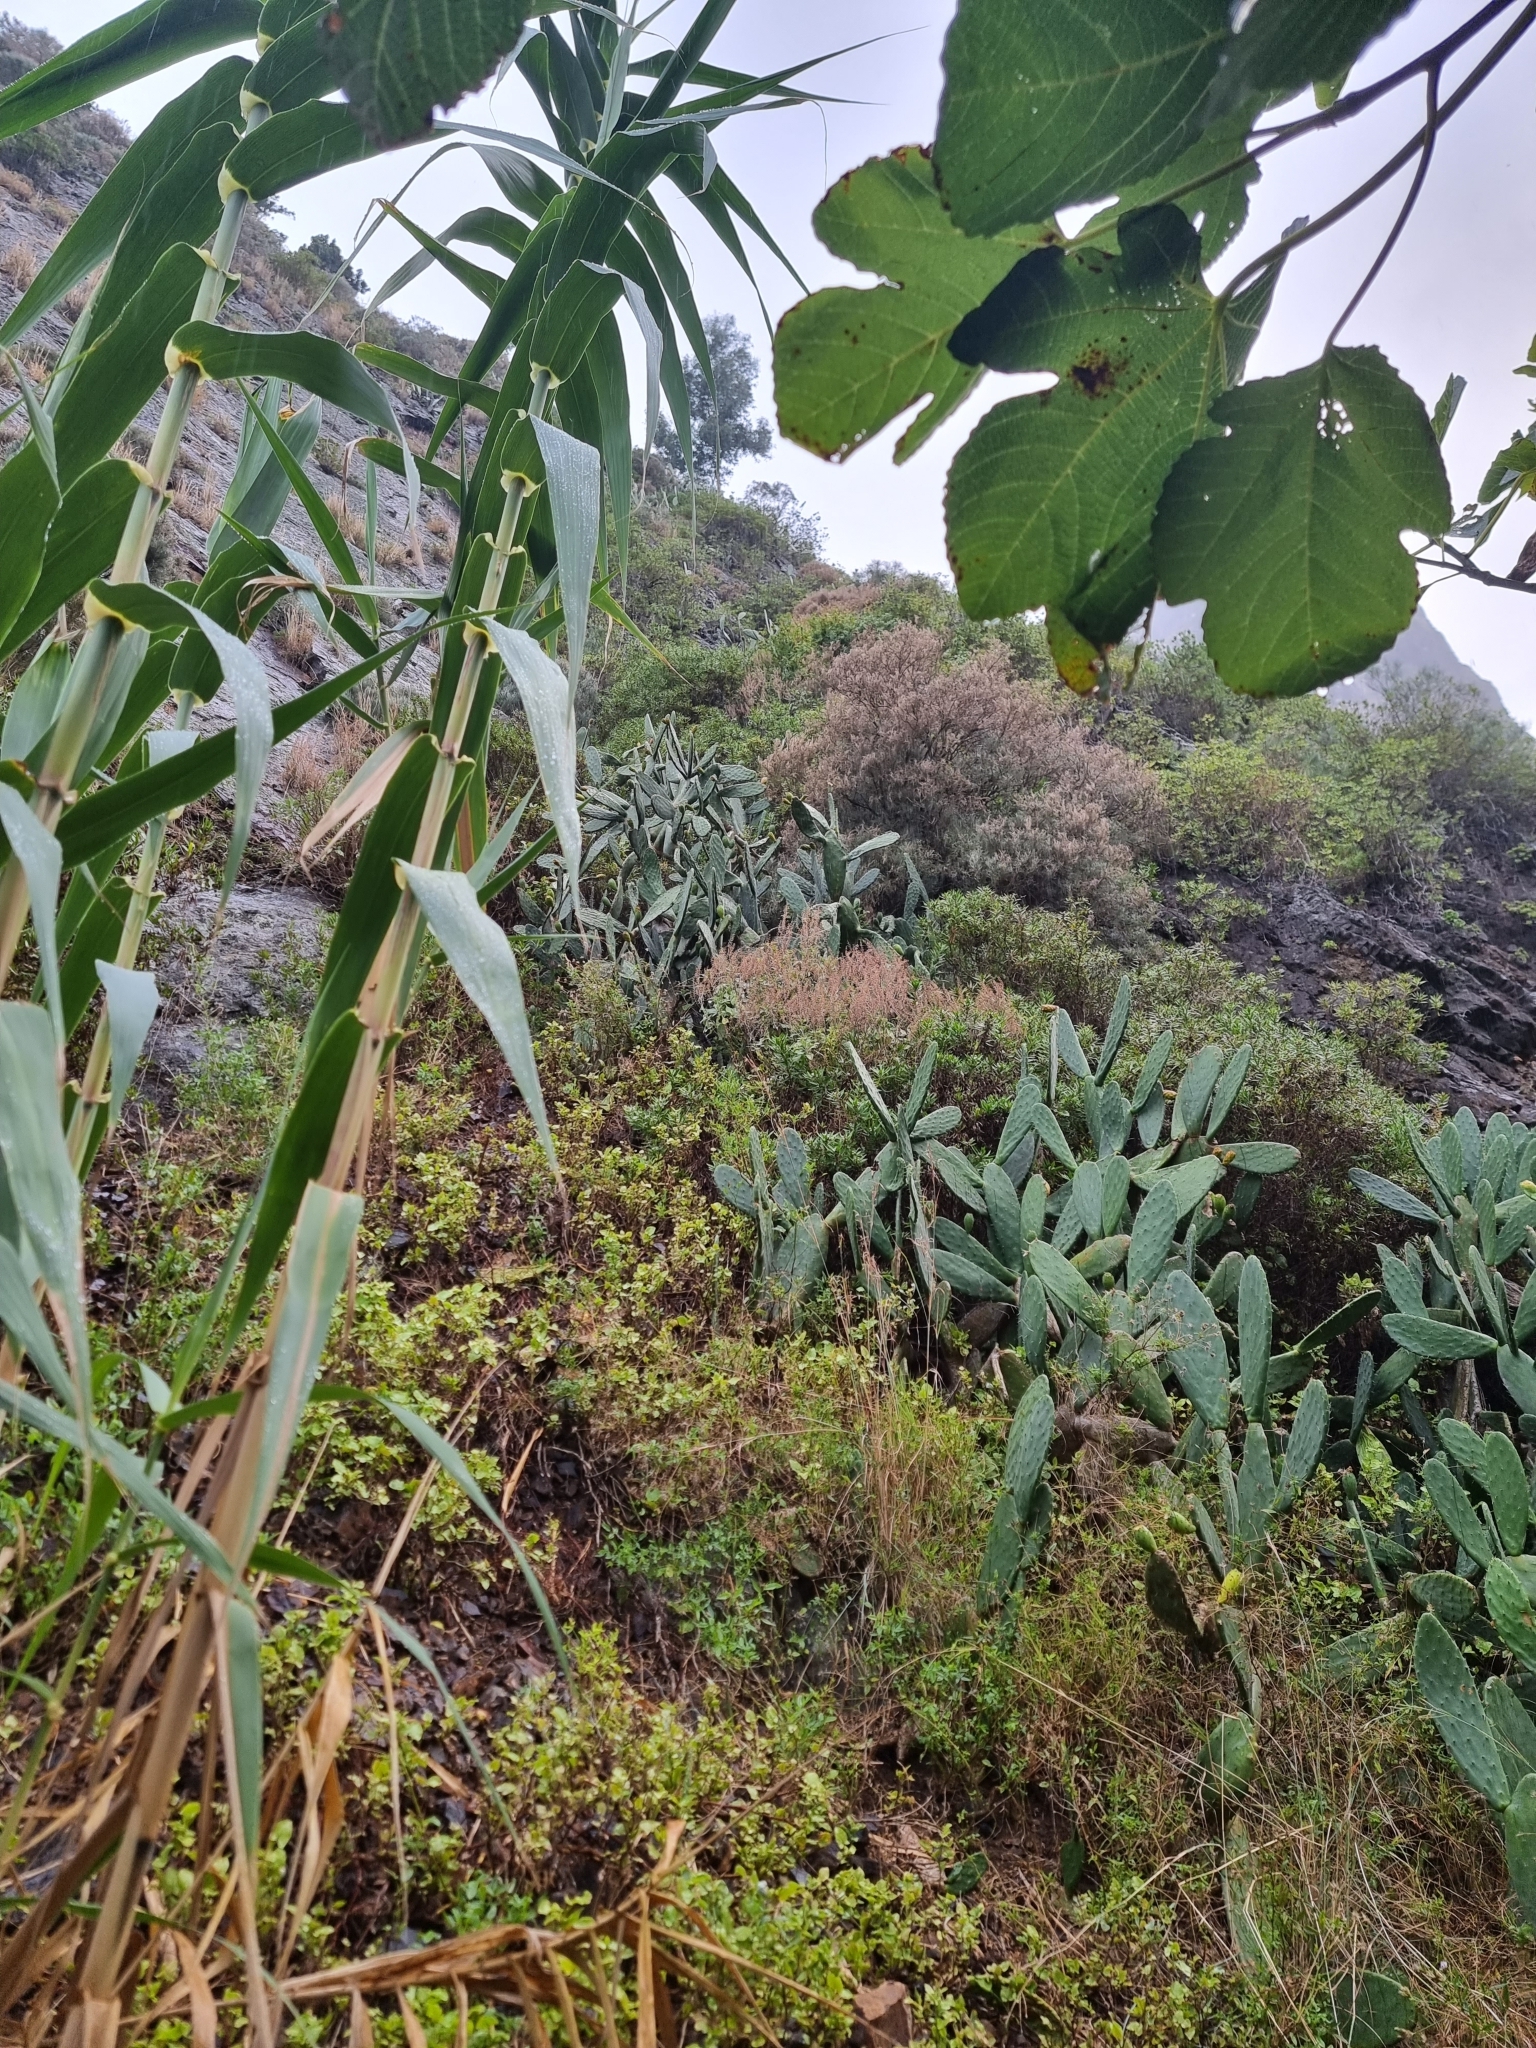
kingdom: Plantae
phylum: Tracheophyta
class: Magnoliopsida
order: Lamiales
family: Lamiaceae
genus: Teucrium
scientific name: Teucrium betonicum
